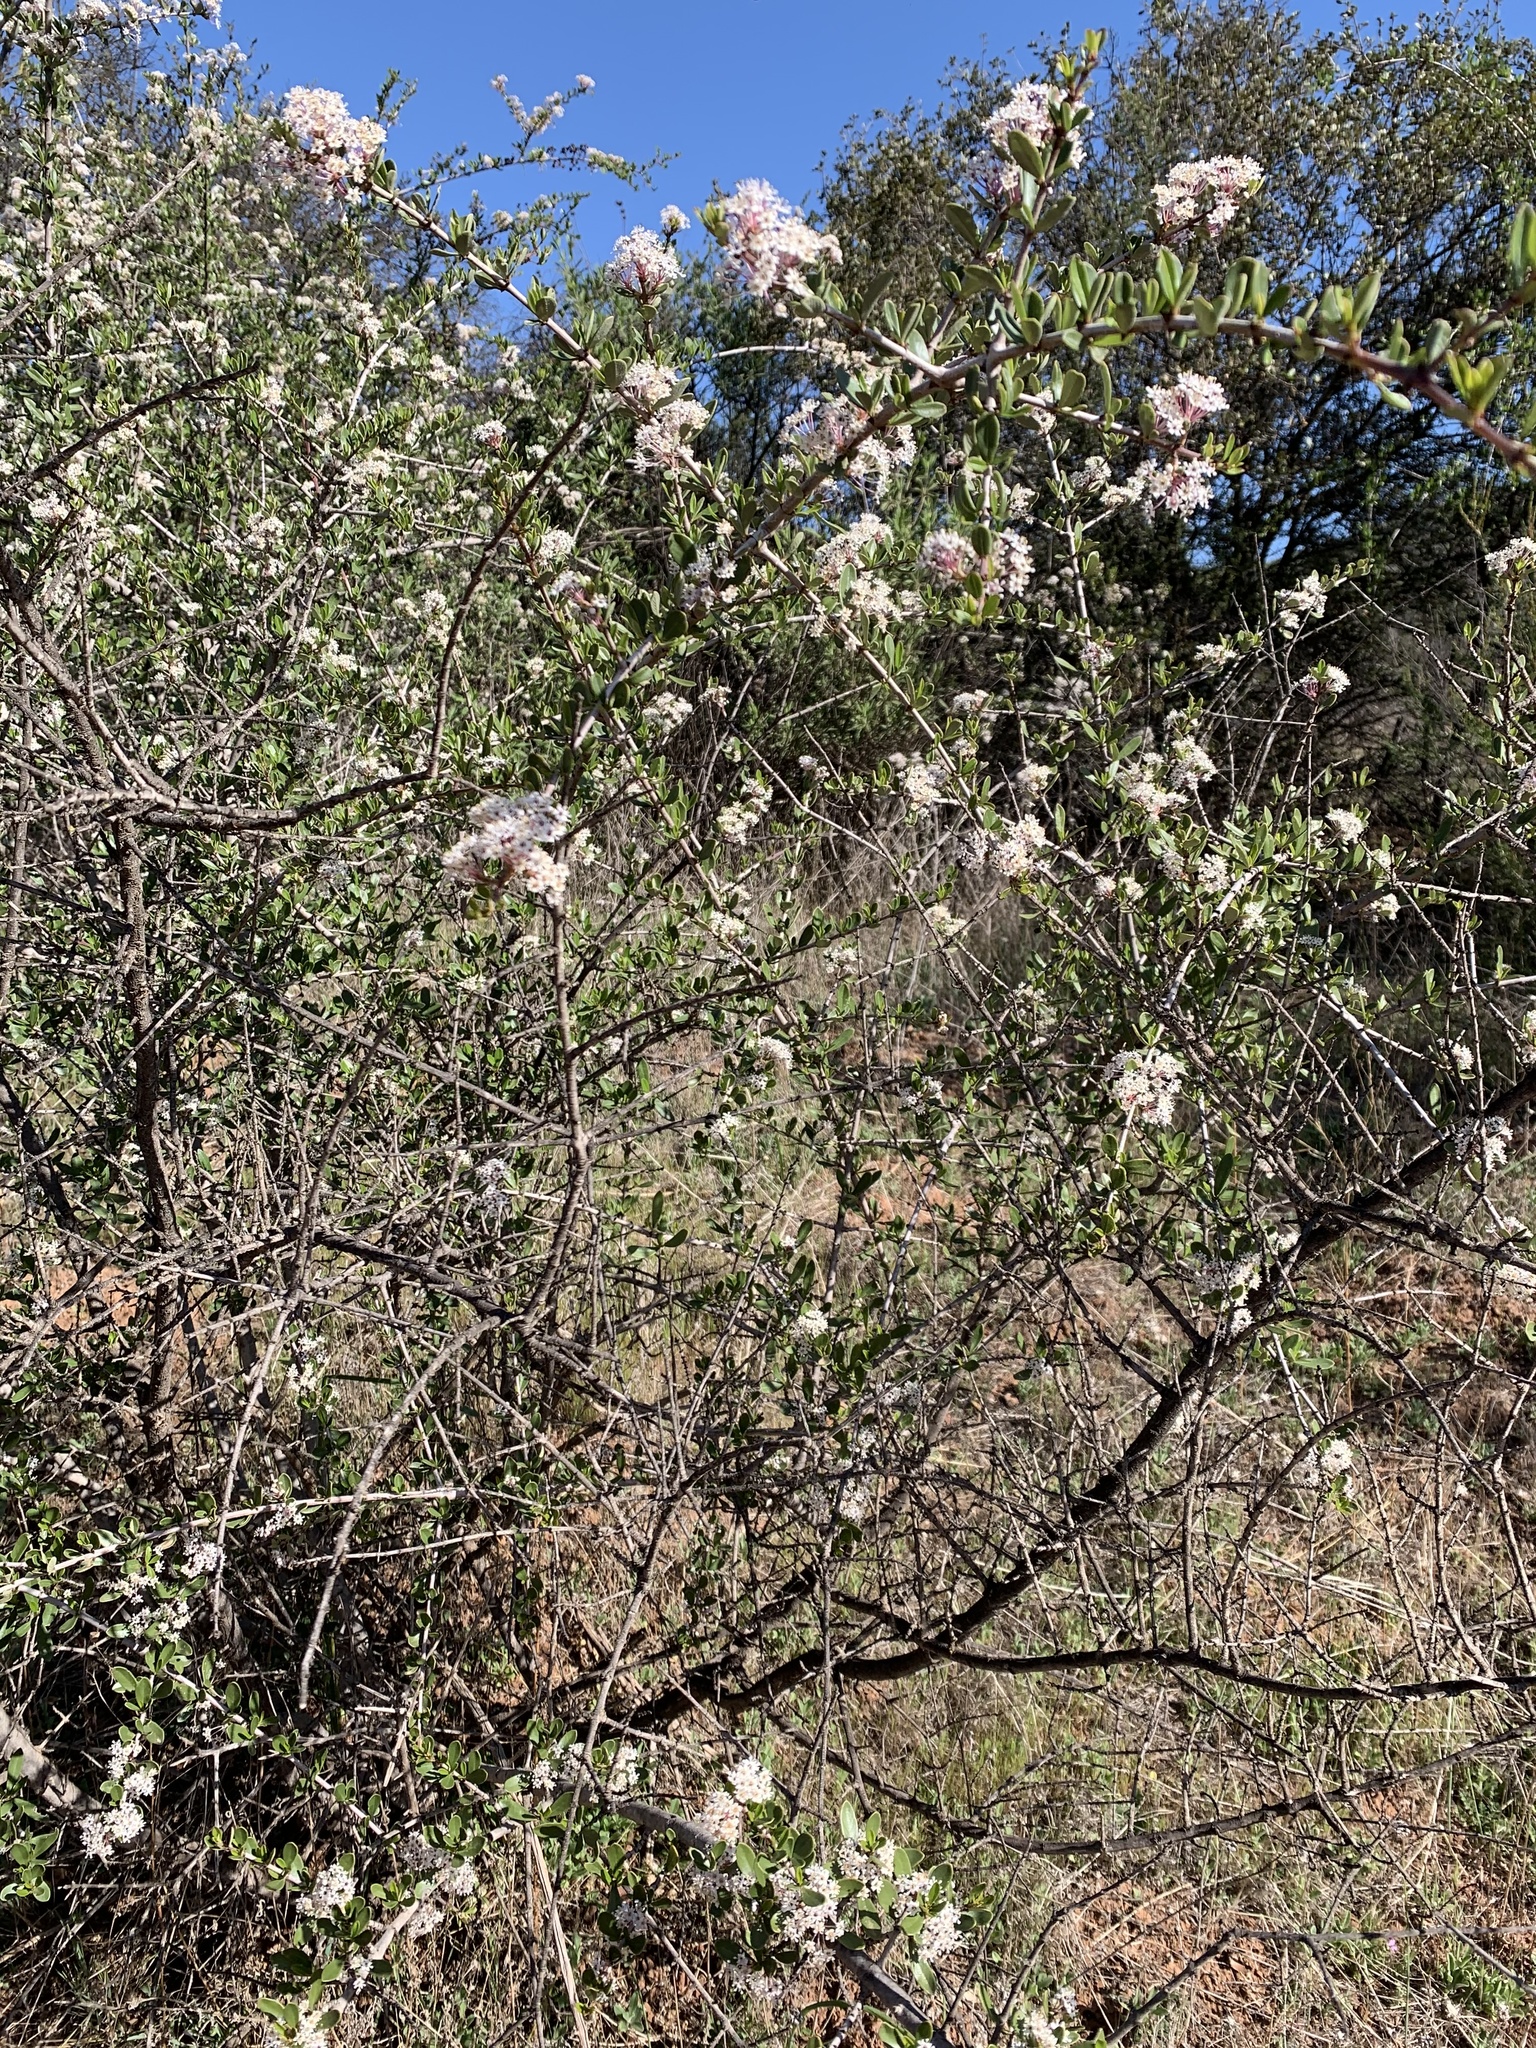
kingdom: Plantae
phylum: Tracheophyta
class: Magnoliopsida
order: Rosales
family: Rhamnaceae
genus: Ceanothus
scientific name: Ceanothus cuneatus
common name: Cuneate ceanothus
